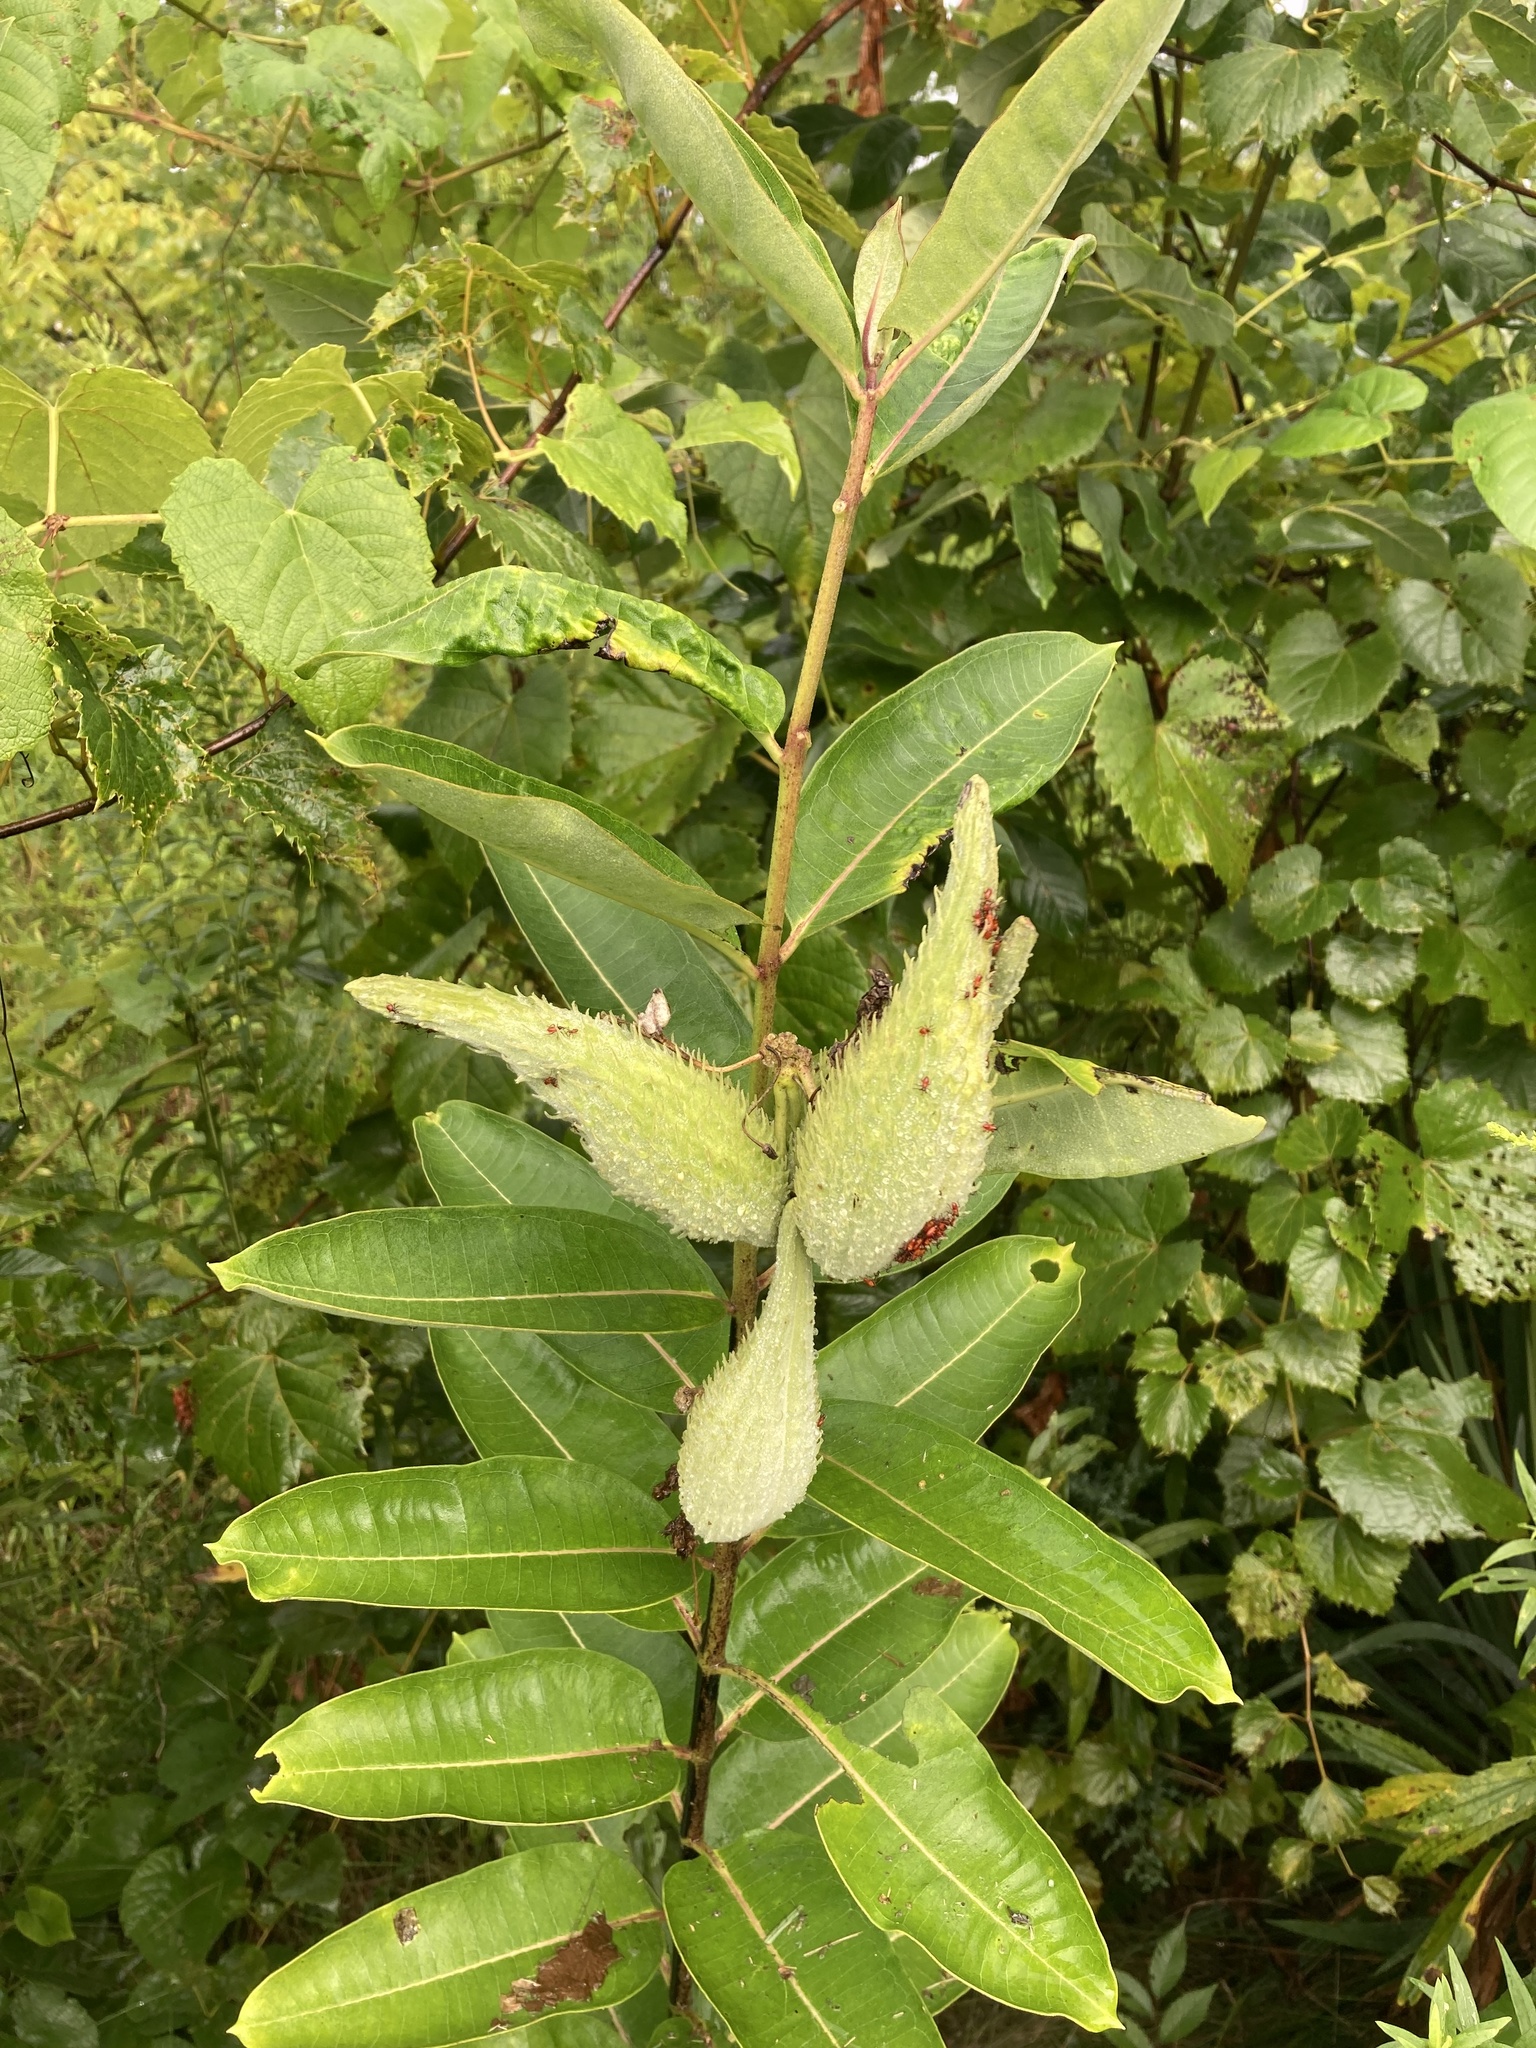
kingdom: Plantae
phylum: Tracheophyta
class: Magnoliopsida
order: Gentianales
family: Apocynaceae
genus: Asclepias
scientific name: Asclepias syriaca
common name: Common milkweed
